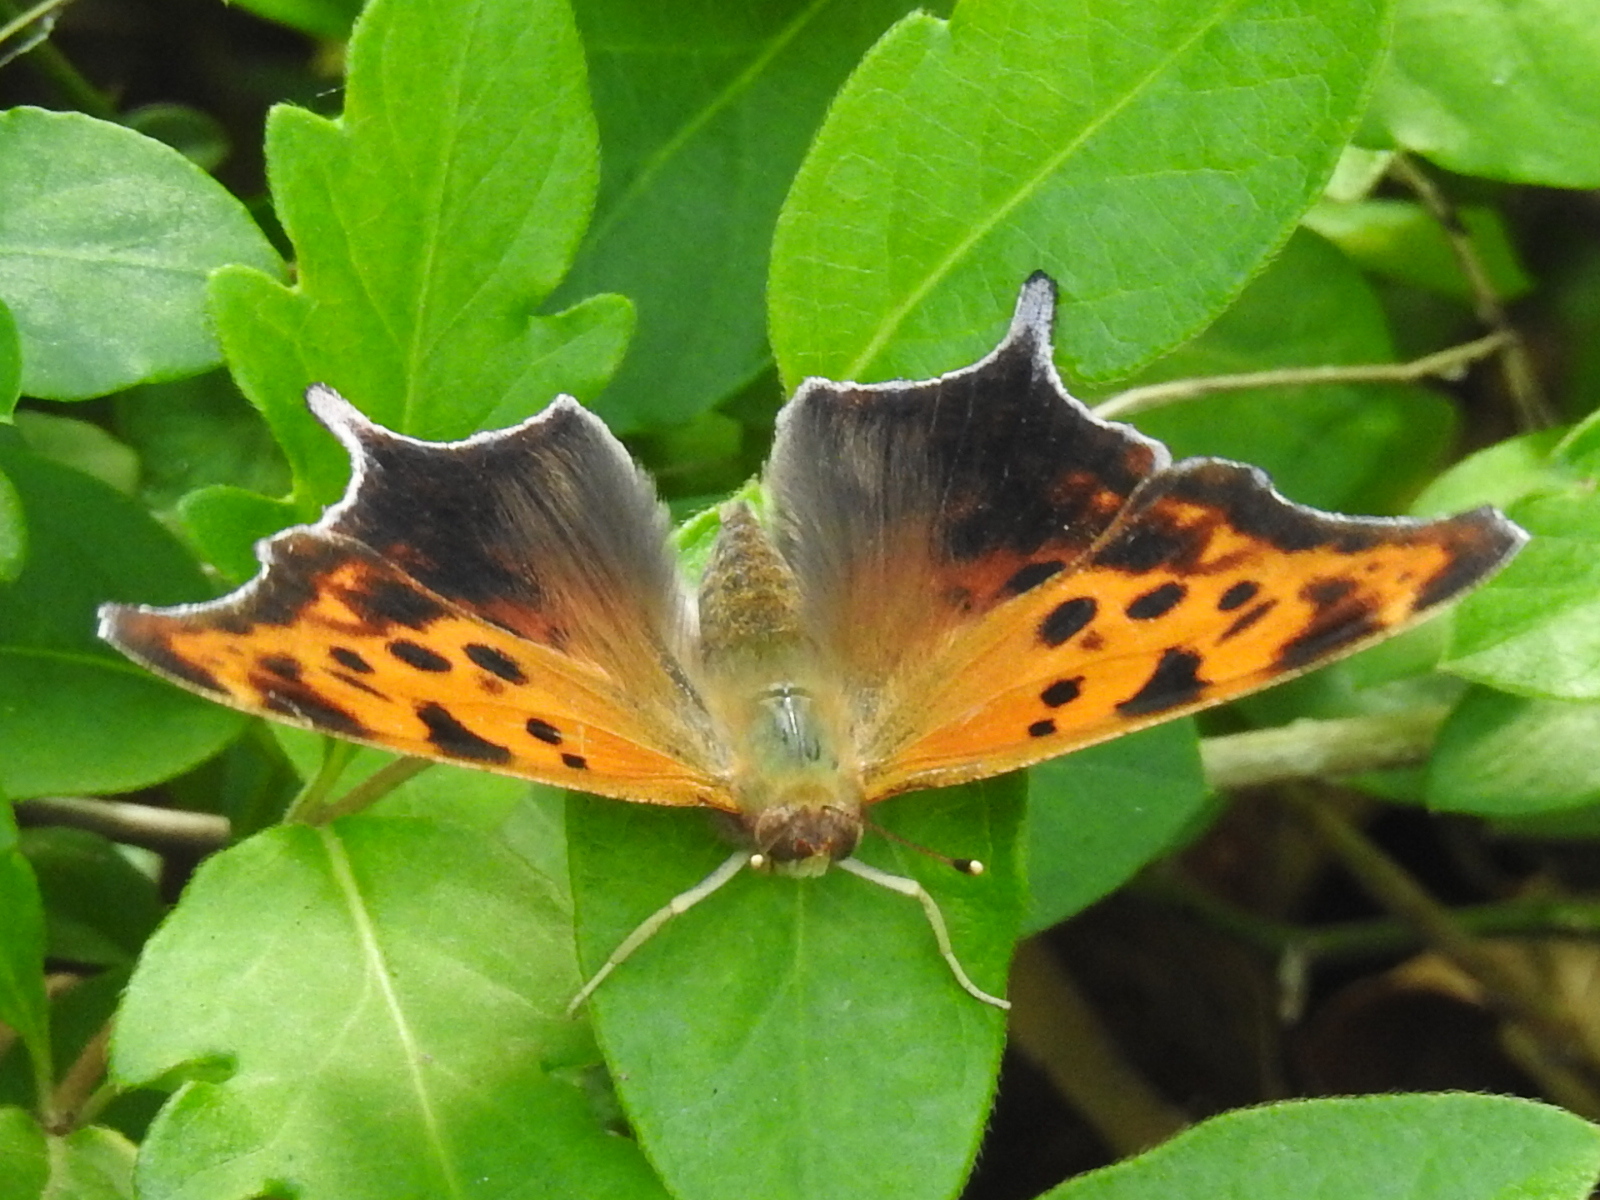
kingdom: Animalia
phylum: Arthropoda
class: Insecta
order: Lepidoptera
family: Nymphalidae
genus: Polygonia
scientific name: Polygonia interrogationis
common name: Question mark
